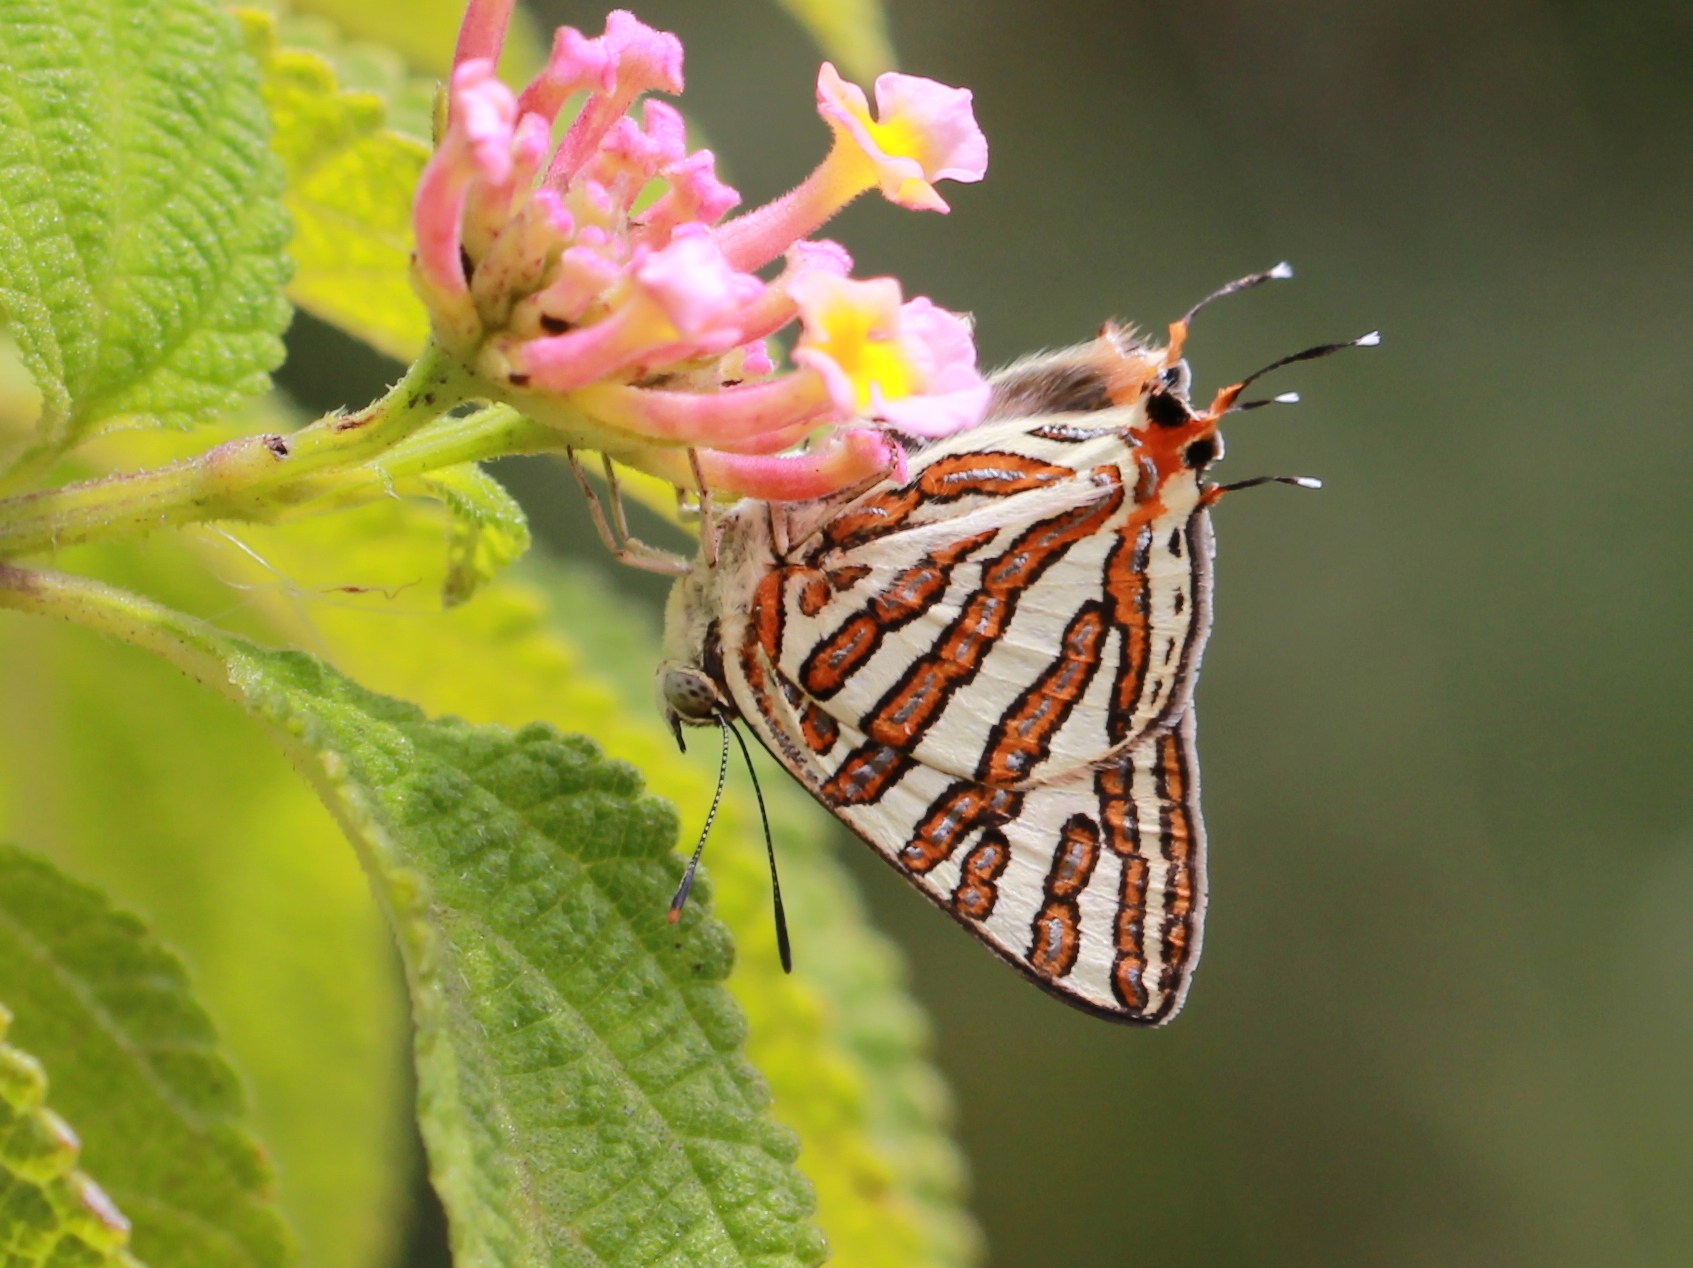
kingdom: Animalia
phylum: Arthropoda
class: Insecta
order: Lepidoptera
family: Lycaenidae
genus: Cigaritis
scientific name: Cigaritis vulcanus
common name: Common silverline
